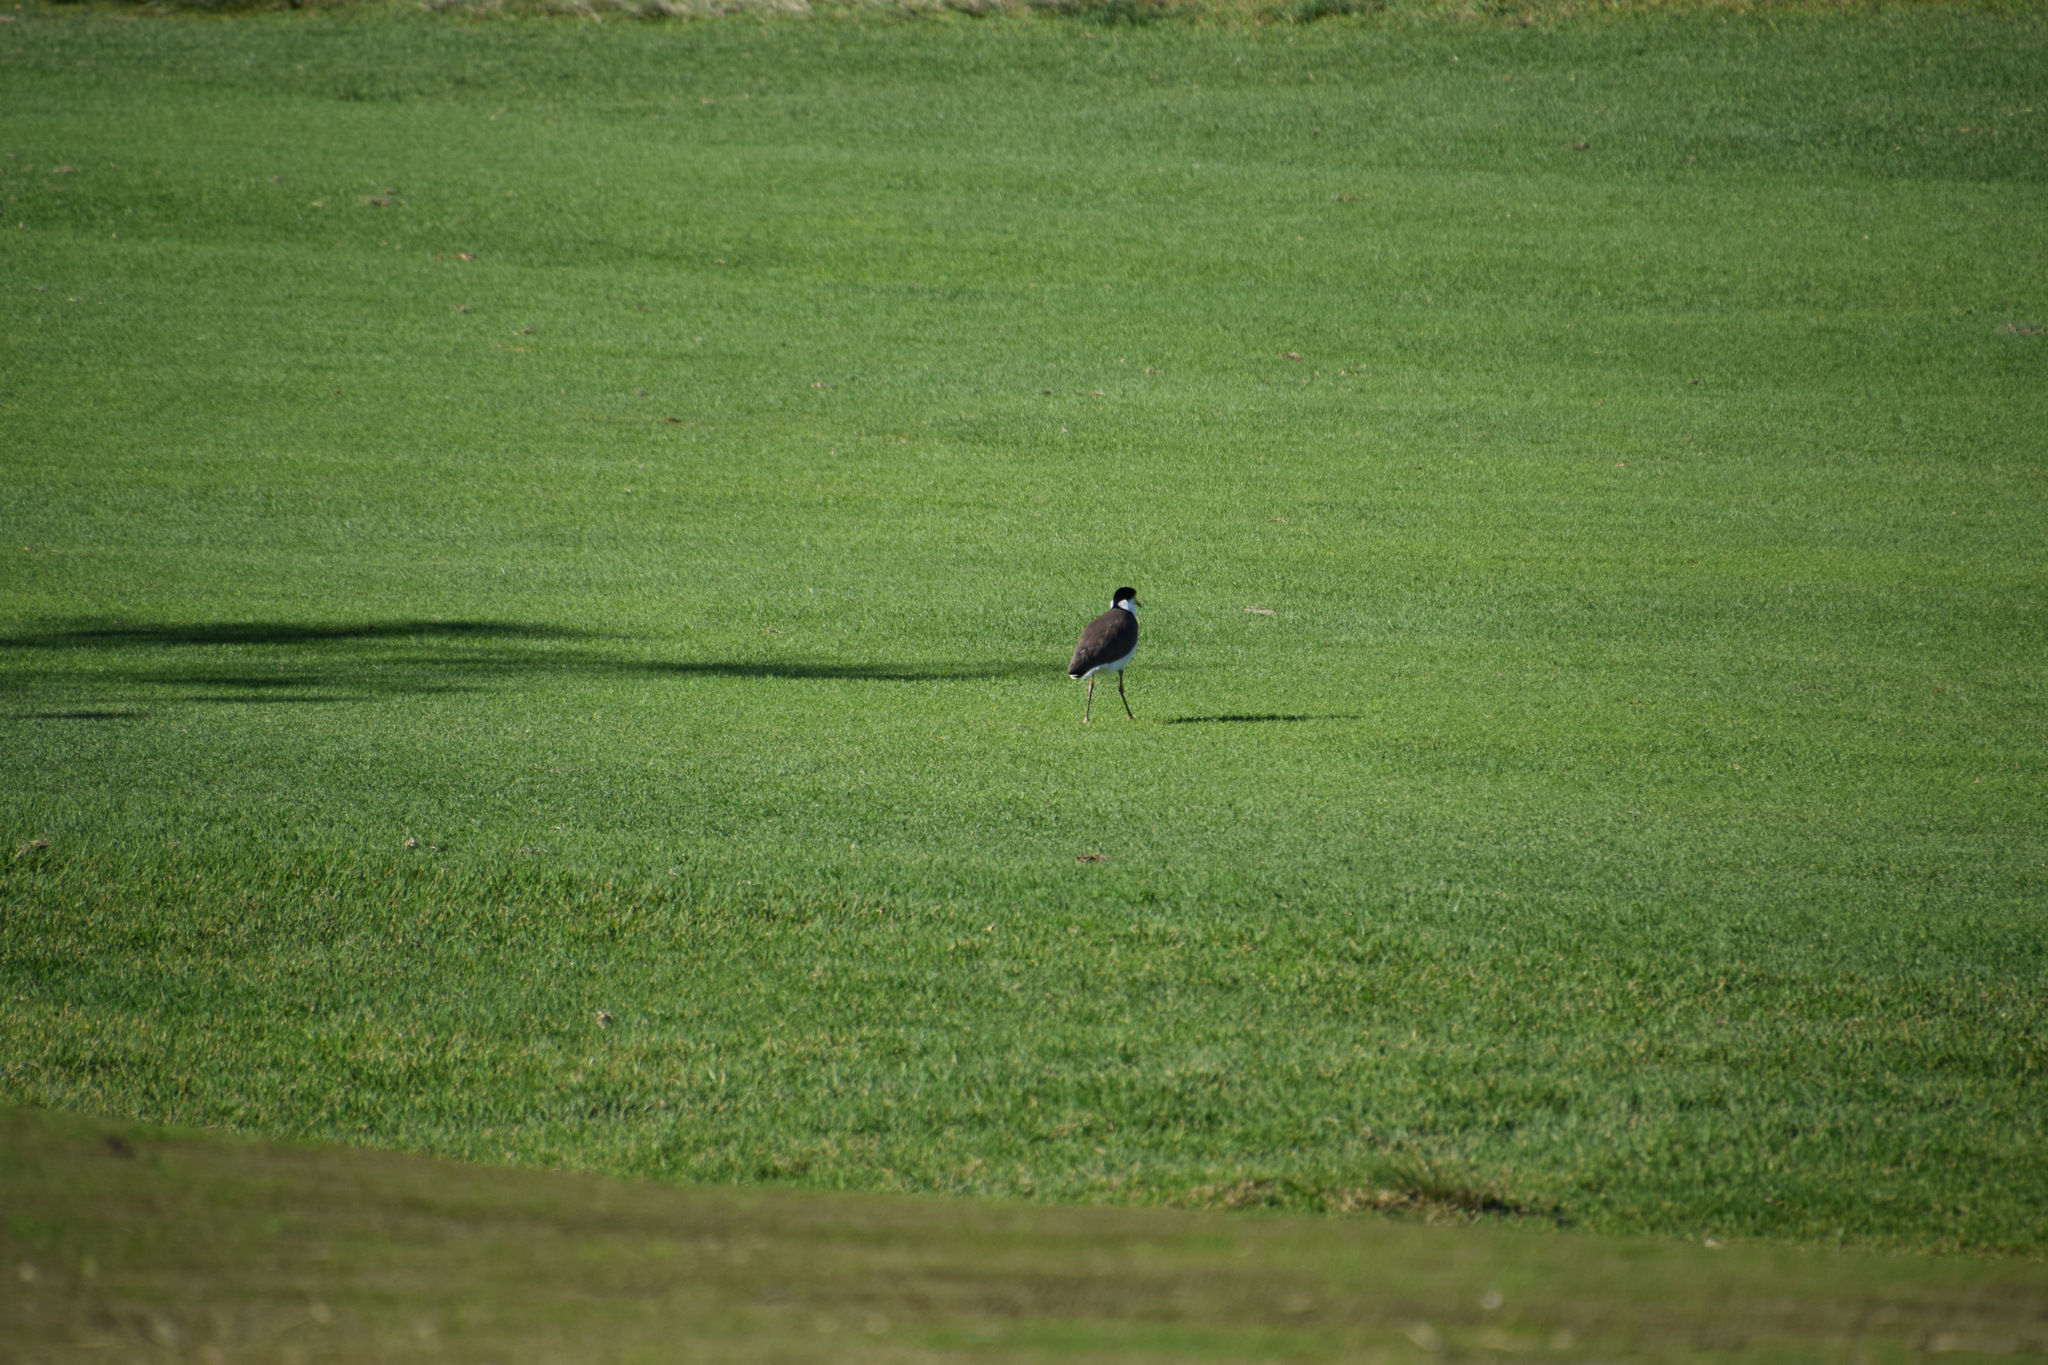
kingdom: Animalia
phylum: Chordata
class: Aves
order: Charadriiformes
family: Charadriidae
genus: Vanellus
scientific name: Vanellus miles
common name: Masked lapwing
